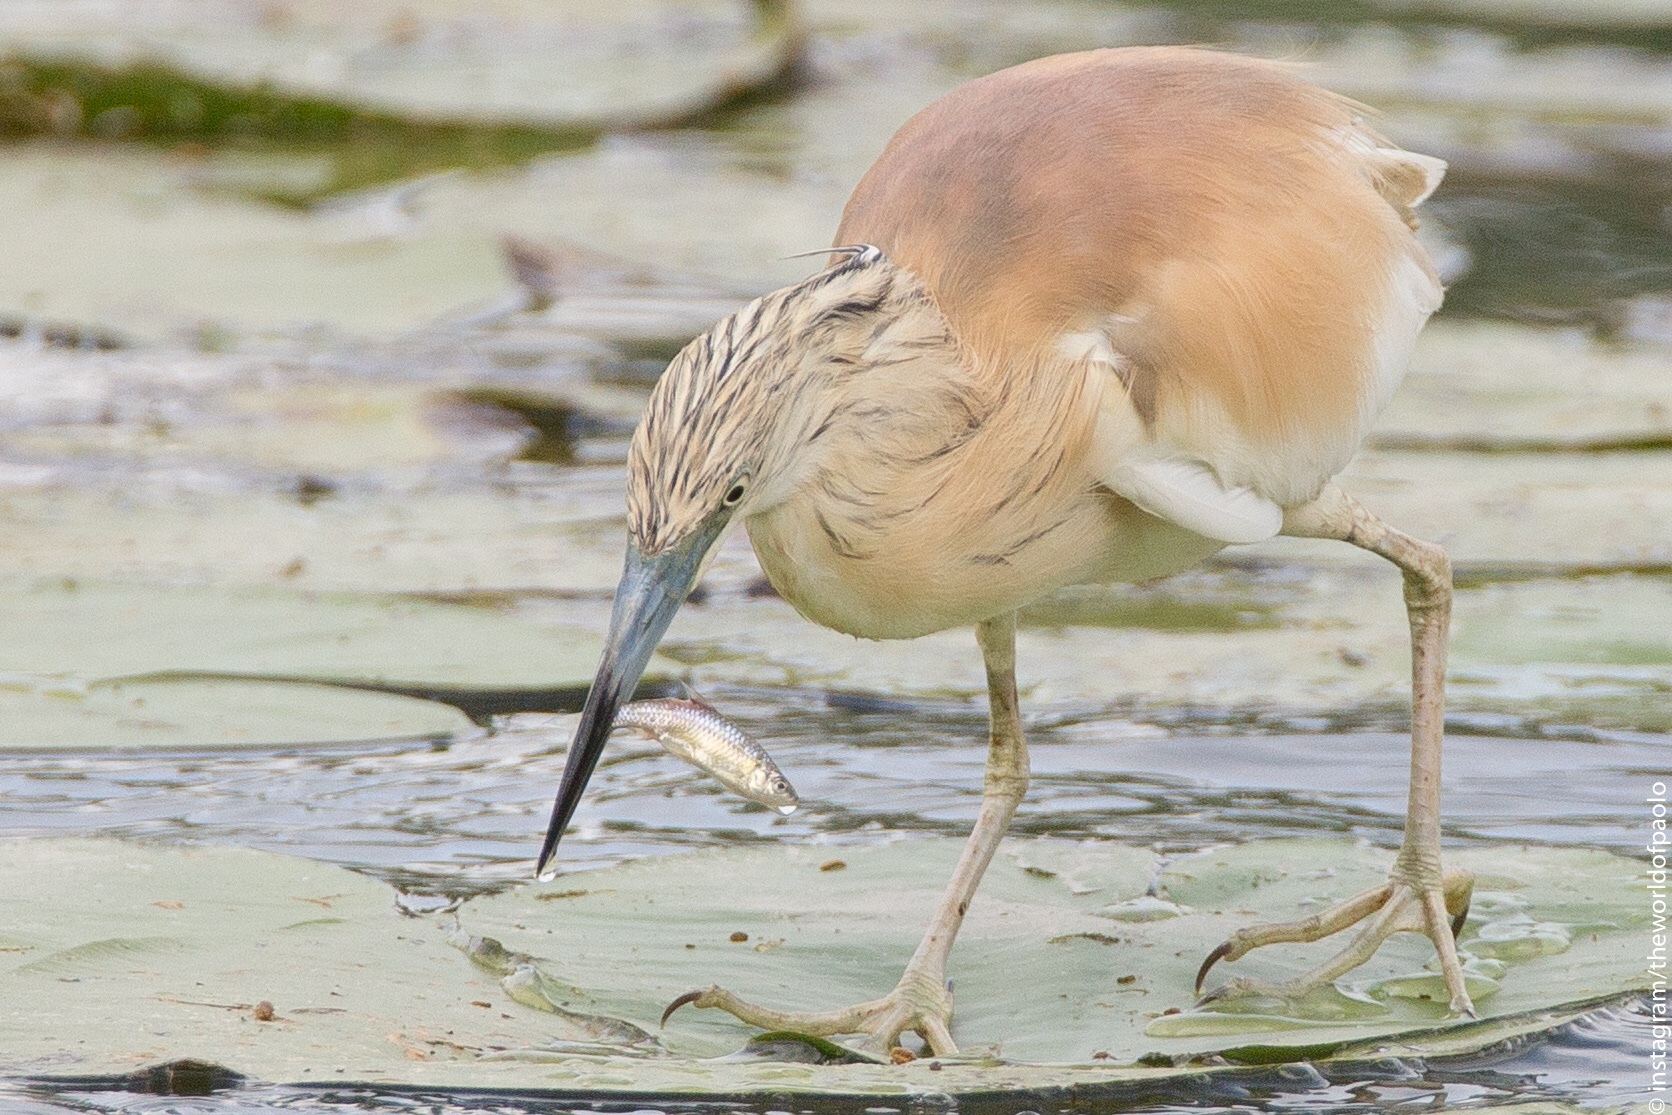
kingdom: Animalia
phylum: Chordata
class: Aves
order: Pelecaniformes
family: Ardeidae
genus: Ardeola
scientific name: Ardeola ralloides
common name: Squacco heron
